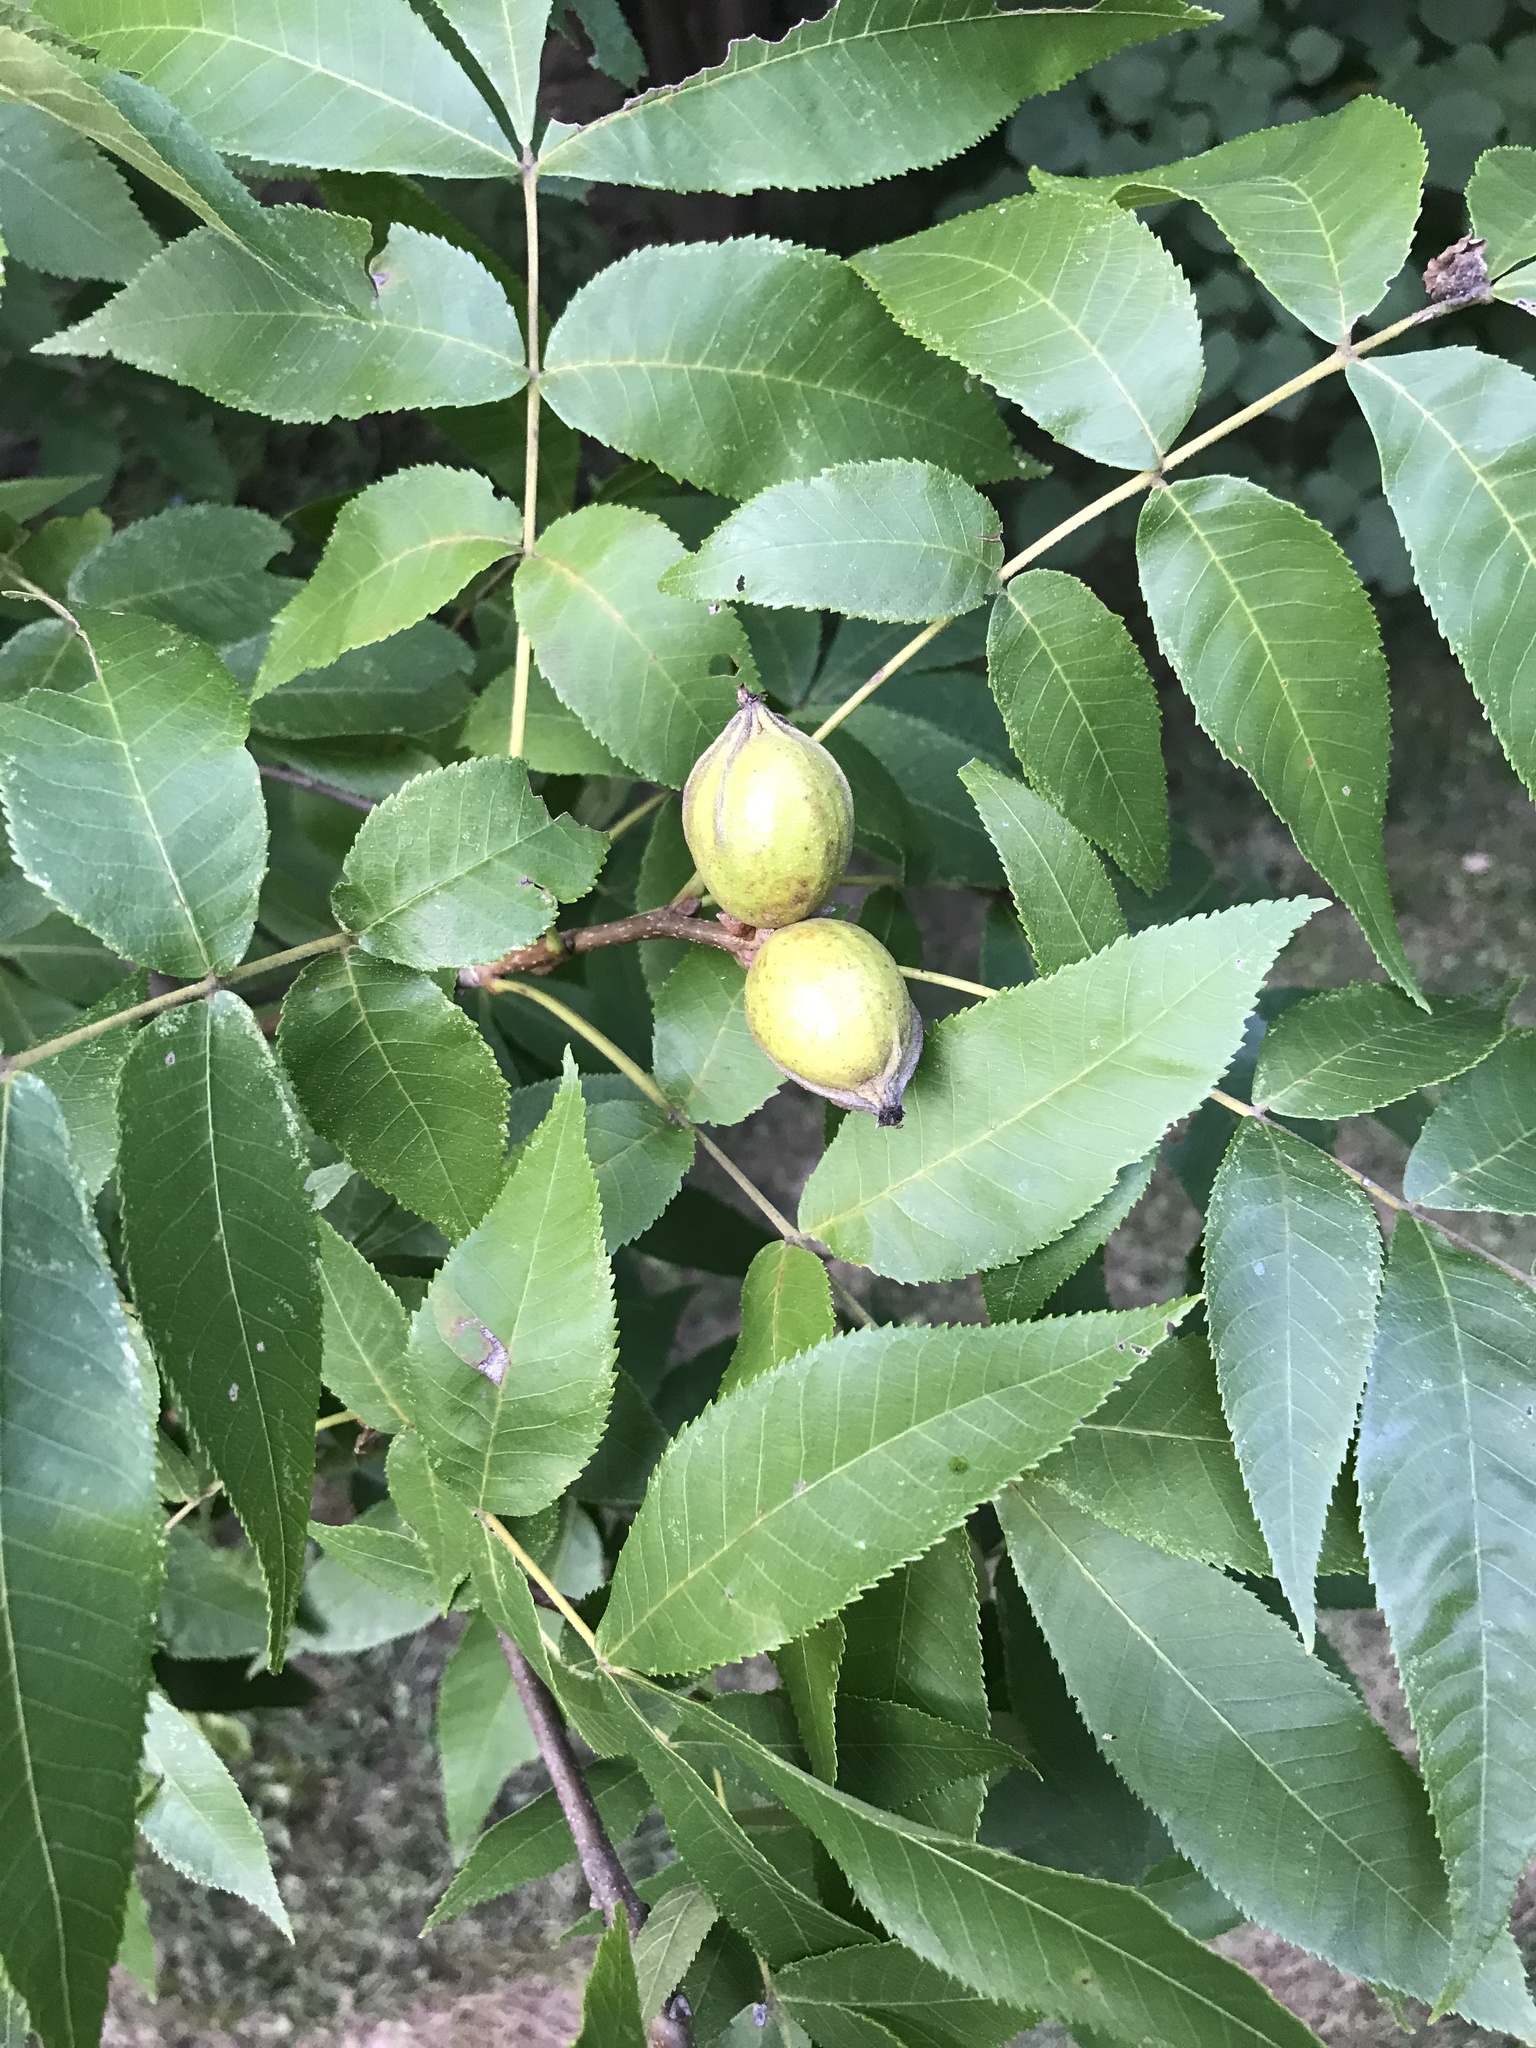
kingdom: Plantae
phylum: Tracheophyta
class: Magnoliopsida
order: Fagales
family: Juglandaceae
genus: Carya
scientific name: Carya glabra
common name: Pignut hickory
